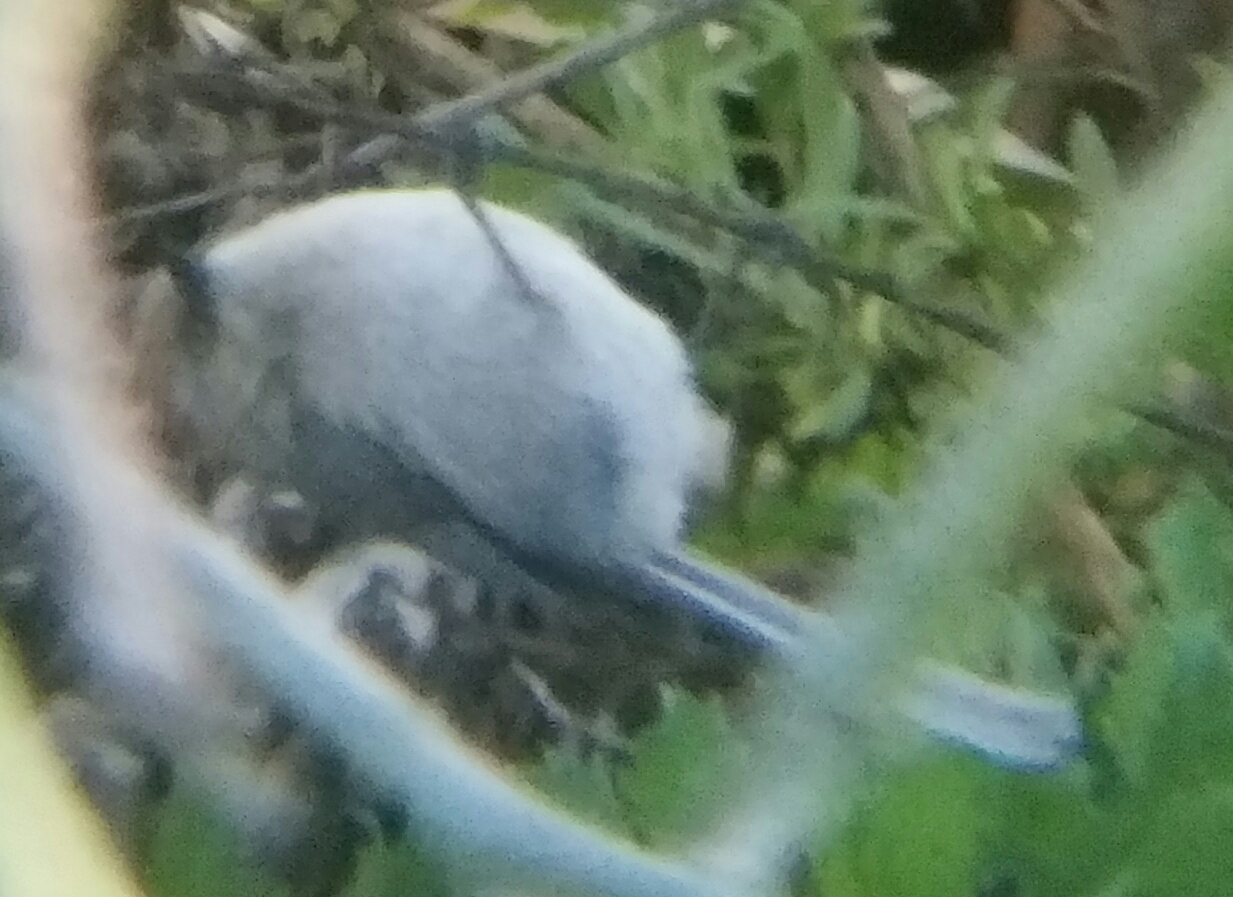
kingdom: Animalia
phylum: Chordata
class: Aves
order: Passeriformes
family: Aegithalidae
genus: Psaltriparus
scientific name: Psaltriparus minimus
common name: American bushtit
